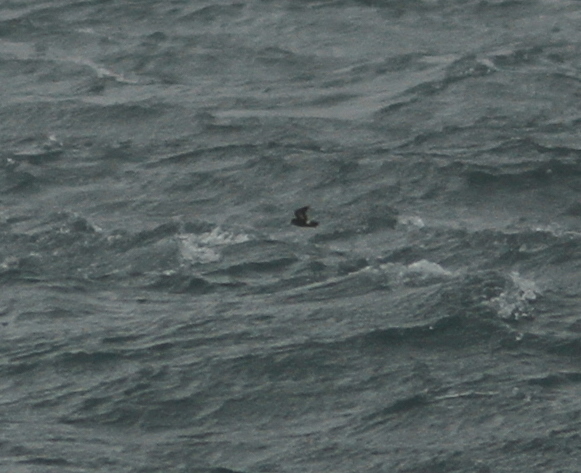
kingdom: Animalia
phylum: Chordata
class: Aves
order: Procellariiformes
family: Hydrobatidae
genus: Hydrobates
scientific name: Hydrobates pelagicus
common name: European storm-petrel
